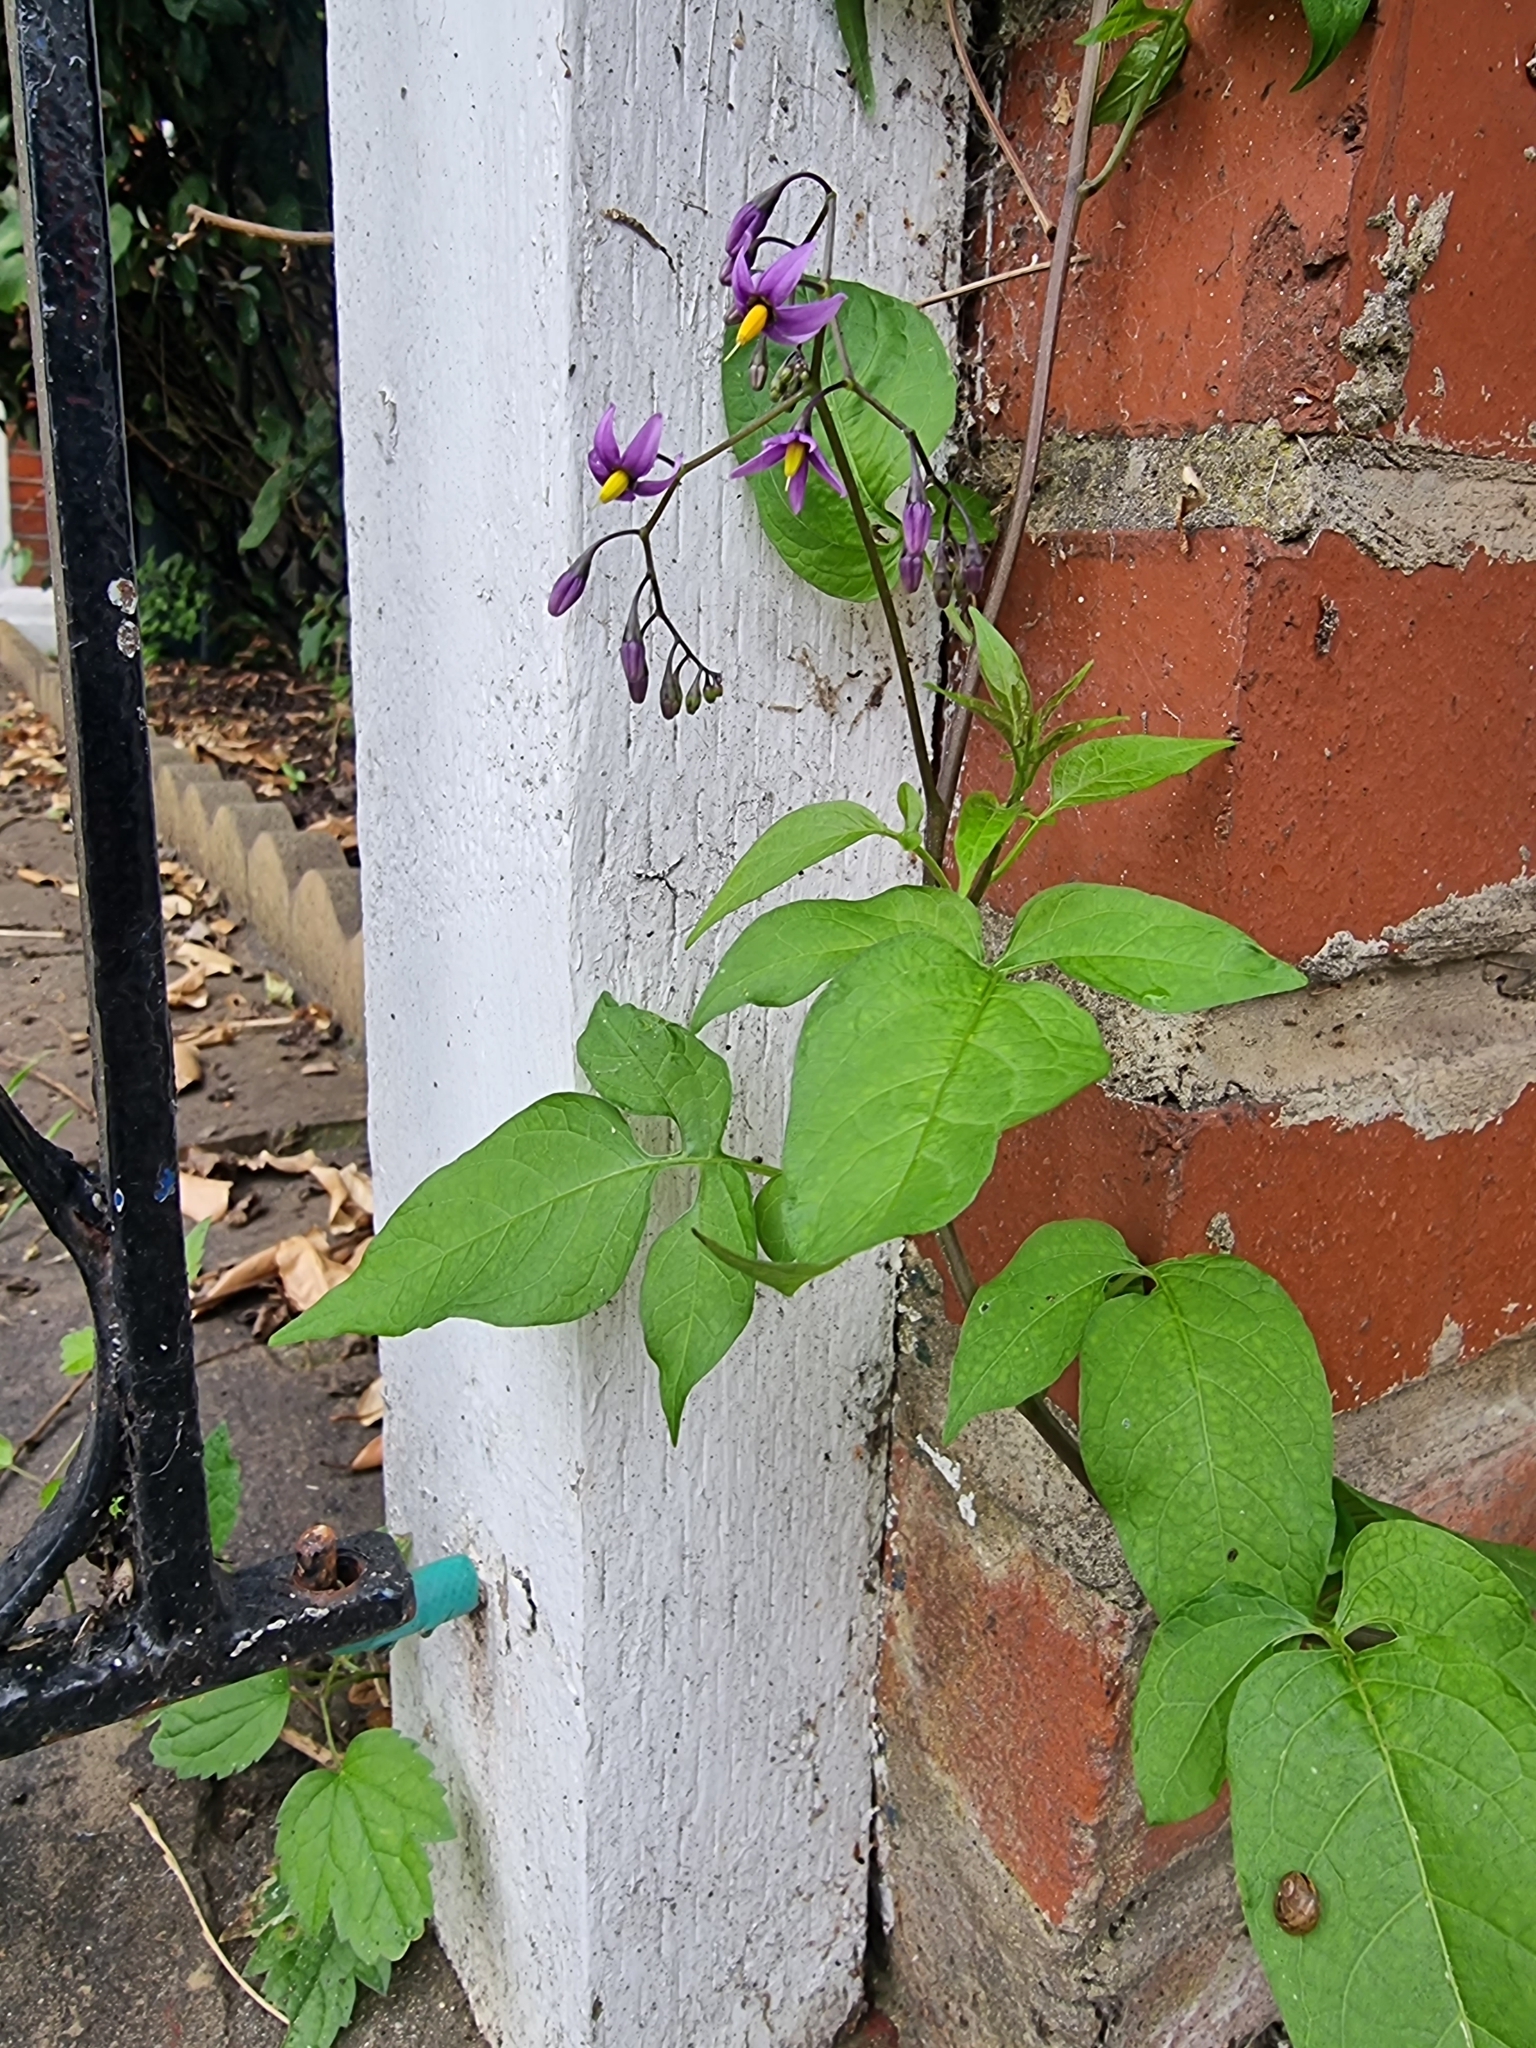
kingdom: Plantae
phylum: Tracheophyta
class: Magnoliopsida
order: Solanales
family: Solanaceae
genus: Solanum
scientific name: Solanum dulcamara
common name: Climbing nightshade
